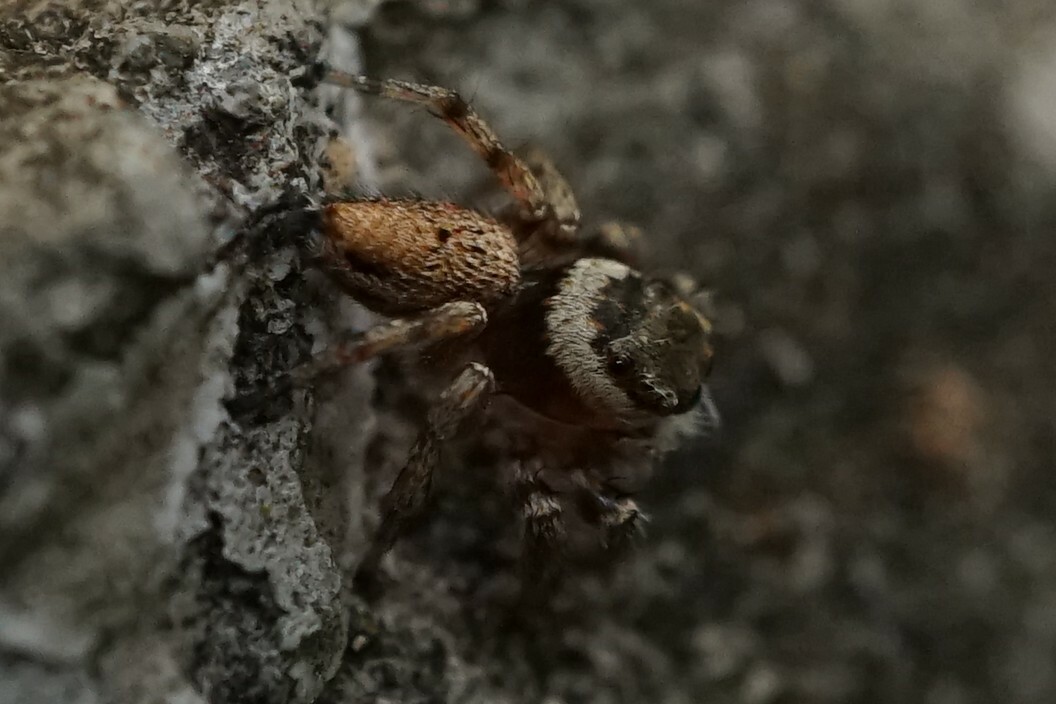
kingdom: Animalia
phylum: Arthropoda
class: Arachnida
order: Araneae
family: Salticidae
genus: Evarcha
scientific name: Evarcha albaria
